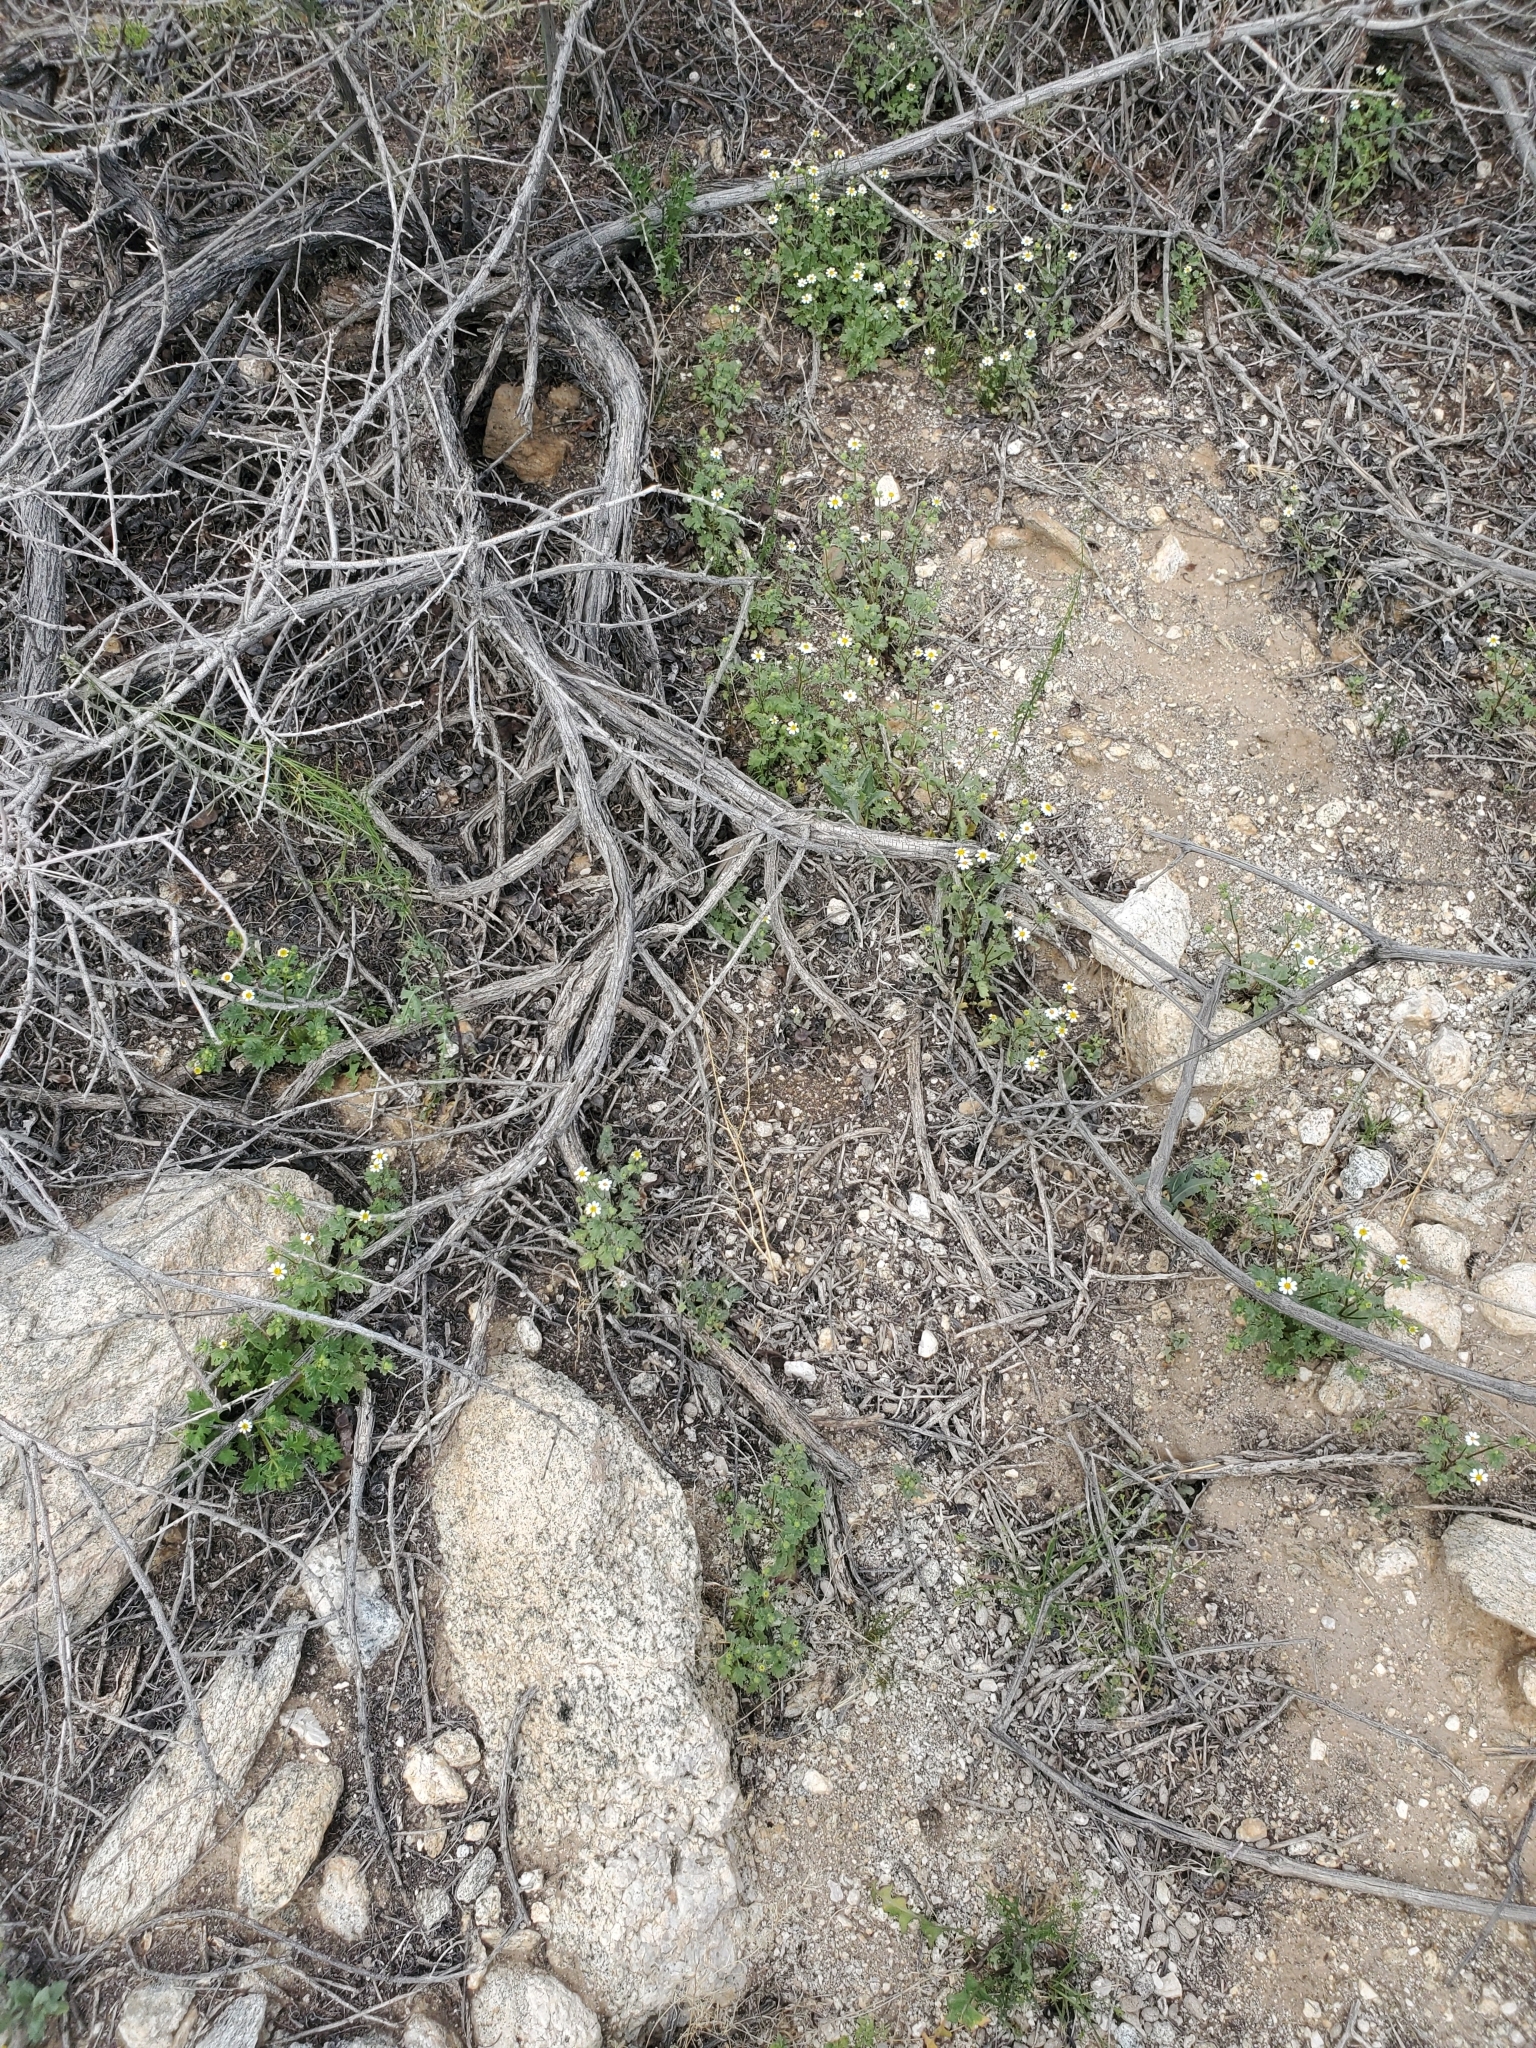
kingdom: Plantae
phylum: Tracheophyta
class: Magnoliopsida
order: Asterales
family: Asteraceae
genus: Laphamia
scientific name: Laphamia emoryi
